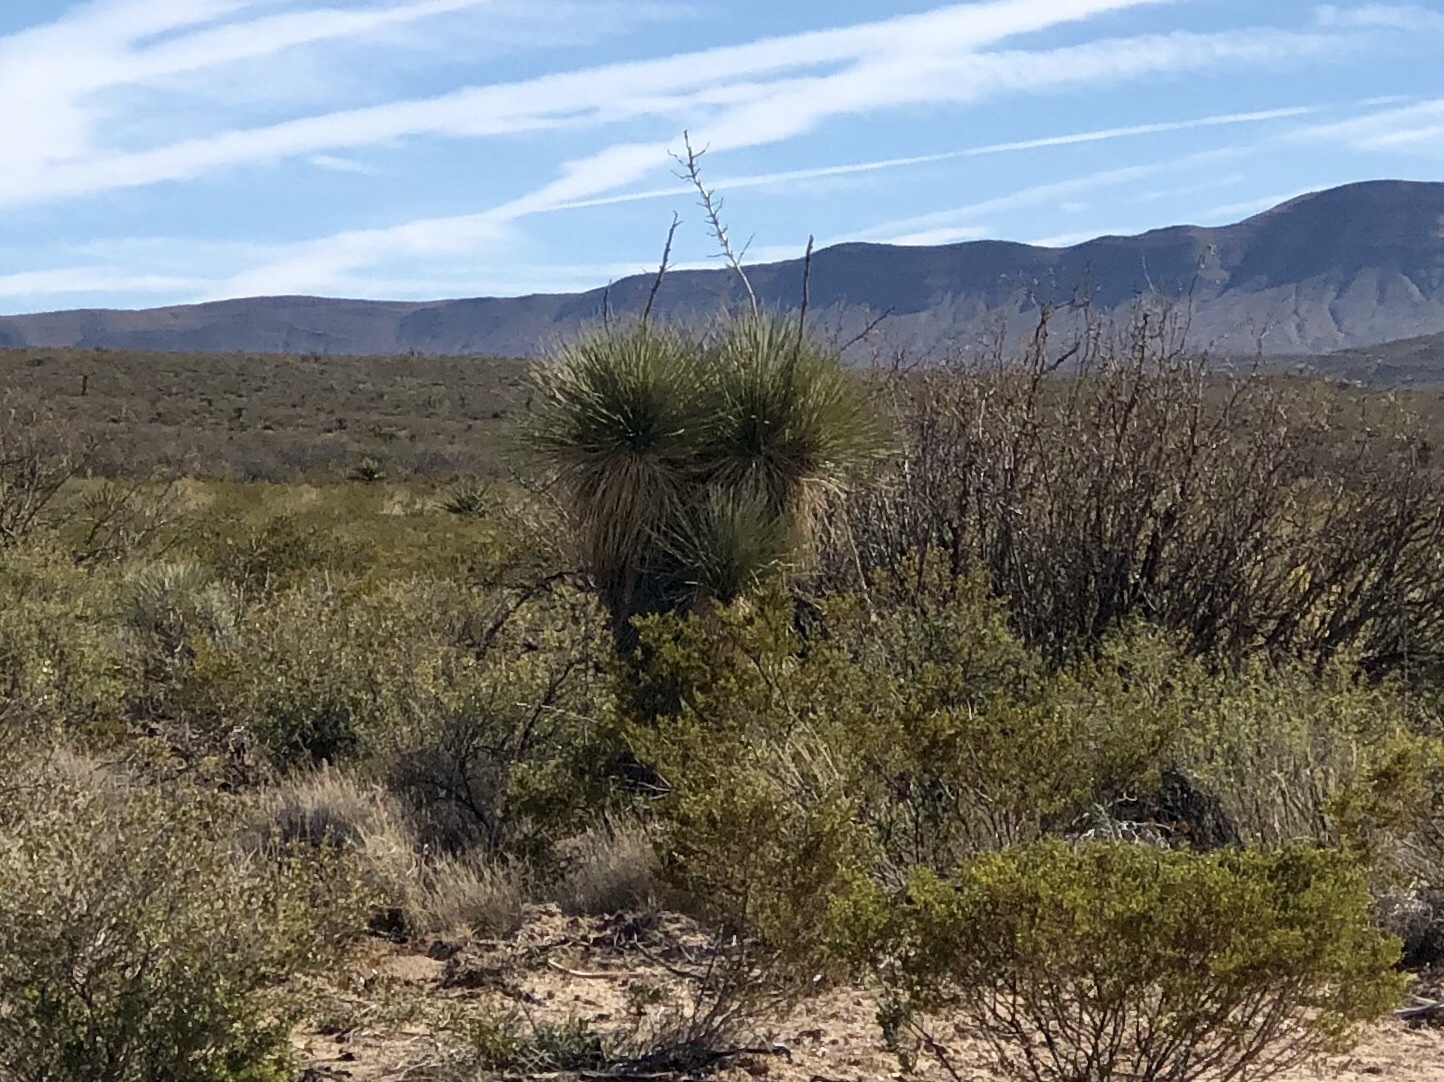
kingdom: Plantae
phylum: Tracheophyta
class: Liliopsida
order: Asparagales
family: Asparagaceae
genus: Yucca
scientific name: Yucca elata
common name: Palmella
